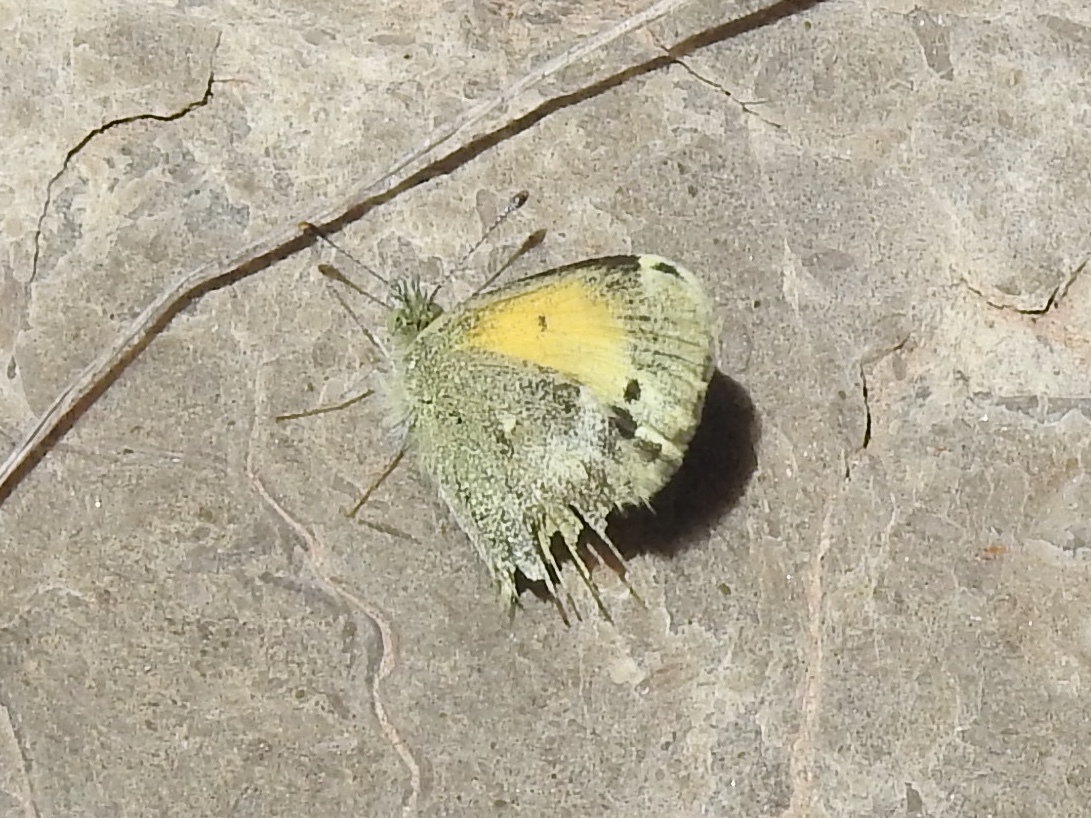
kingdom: Animalia
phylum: Arthropoda
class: Insecta
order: Lepidoptera
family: Pieridae
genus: Nathalis
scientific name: Nathalis iole
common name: Dainty sulphur
